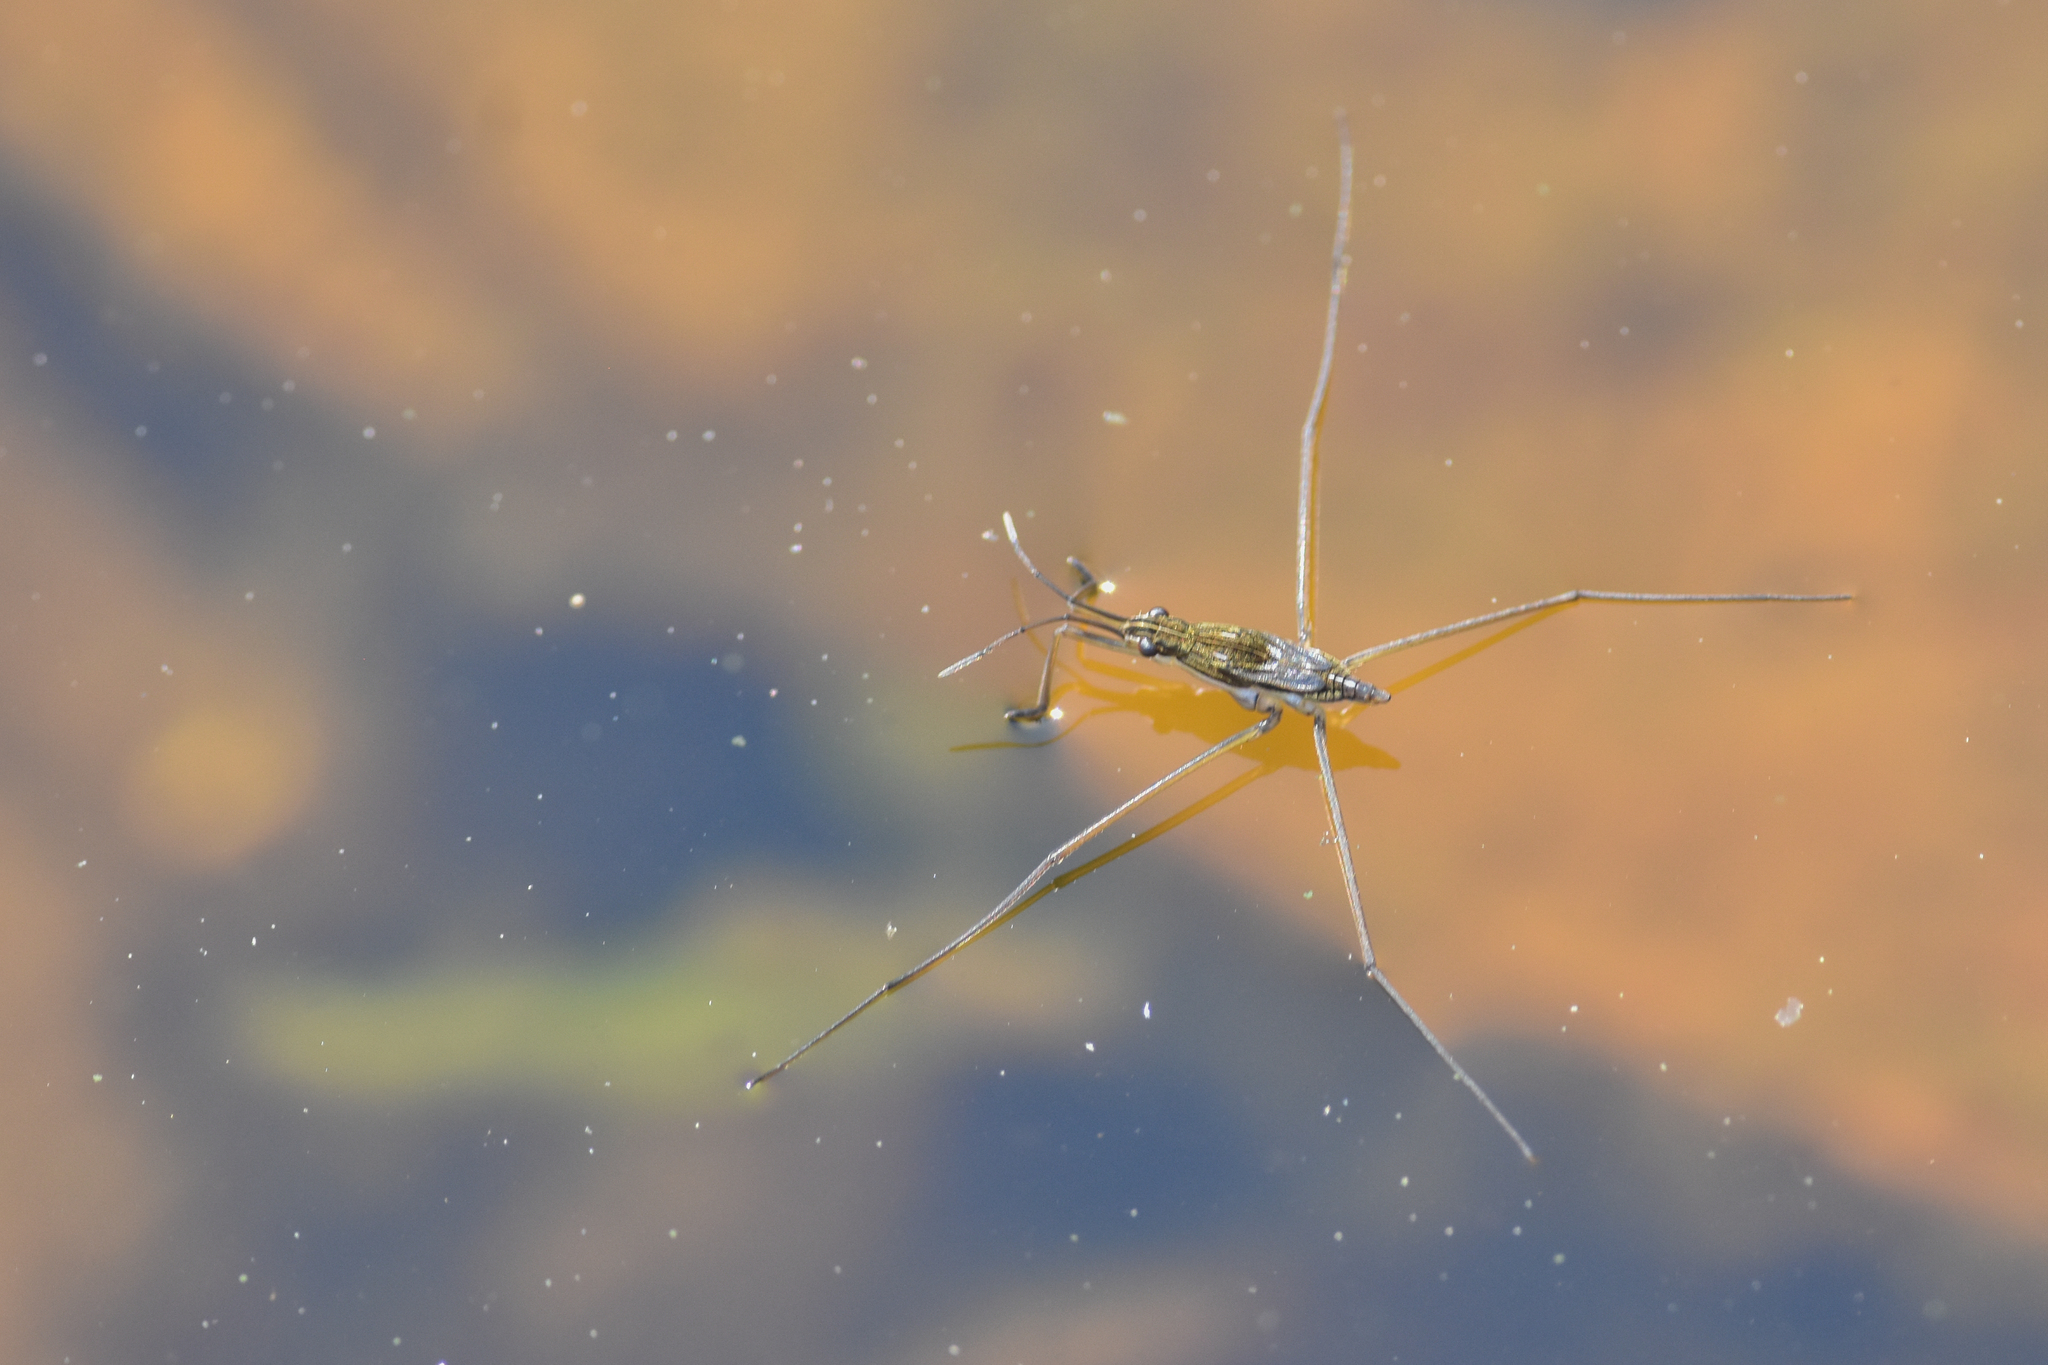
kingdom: Animalia
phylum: Arthropoda
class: Insecta
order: Hemiptera
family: Gerridae
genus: Limnoporus
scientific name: Limnoporus notabilis
